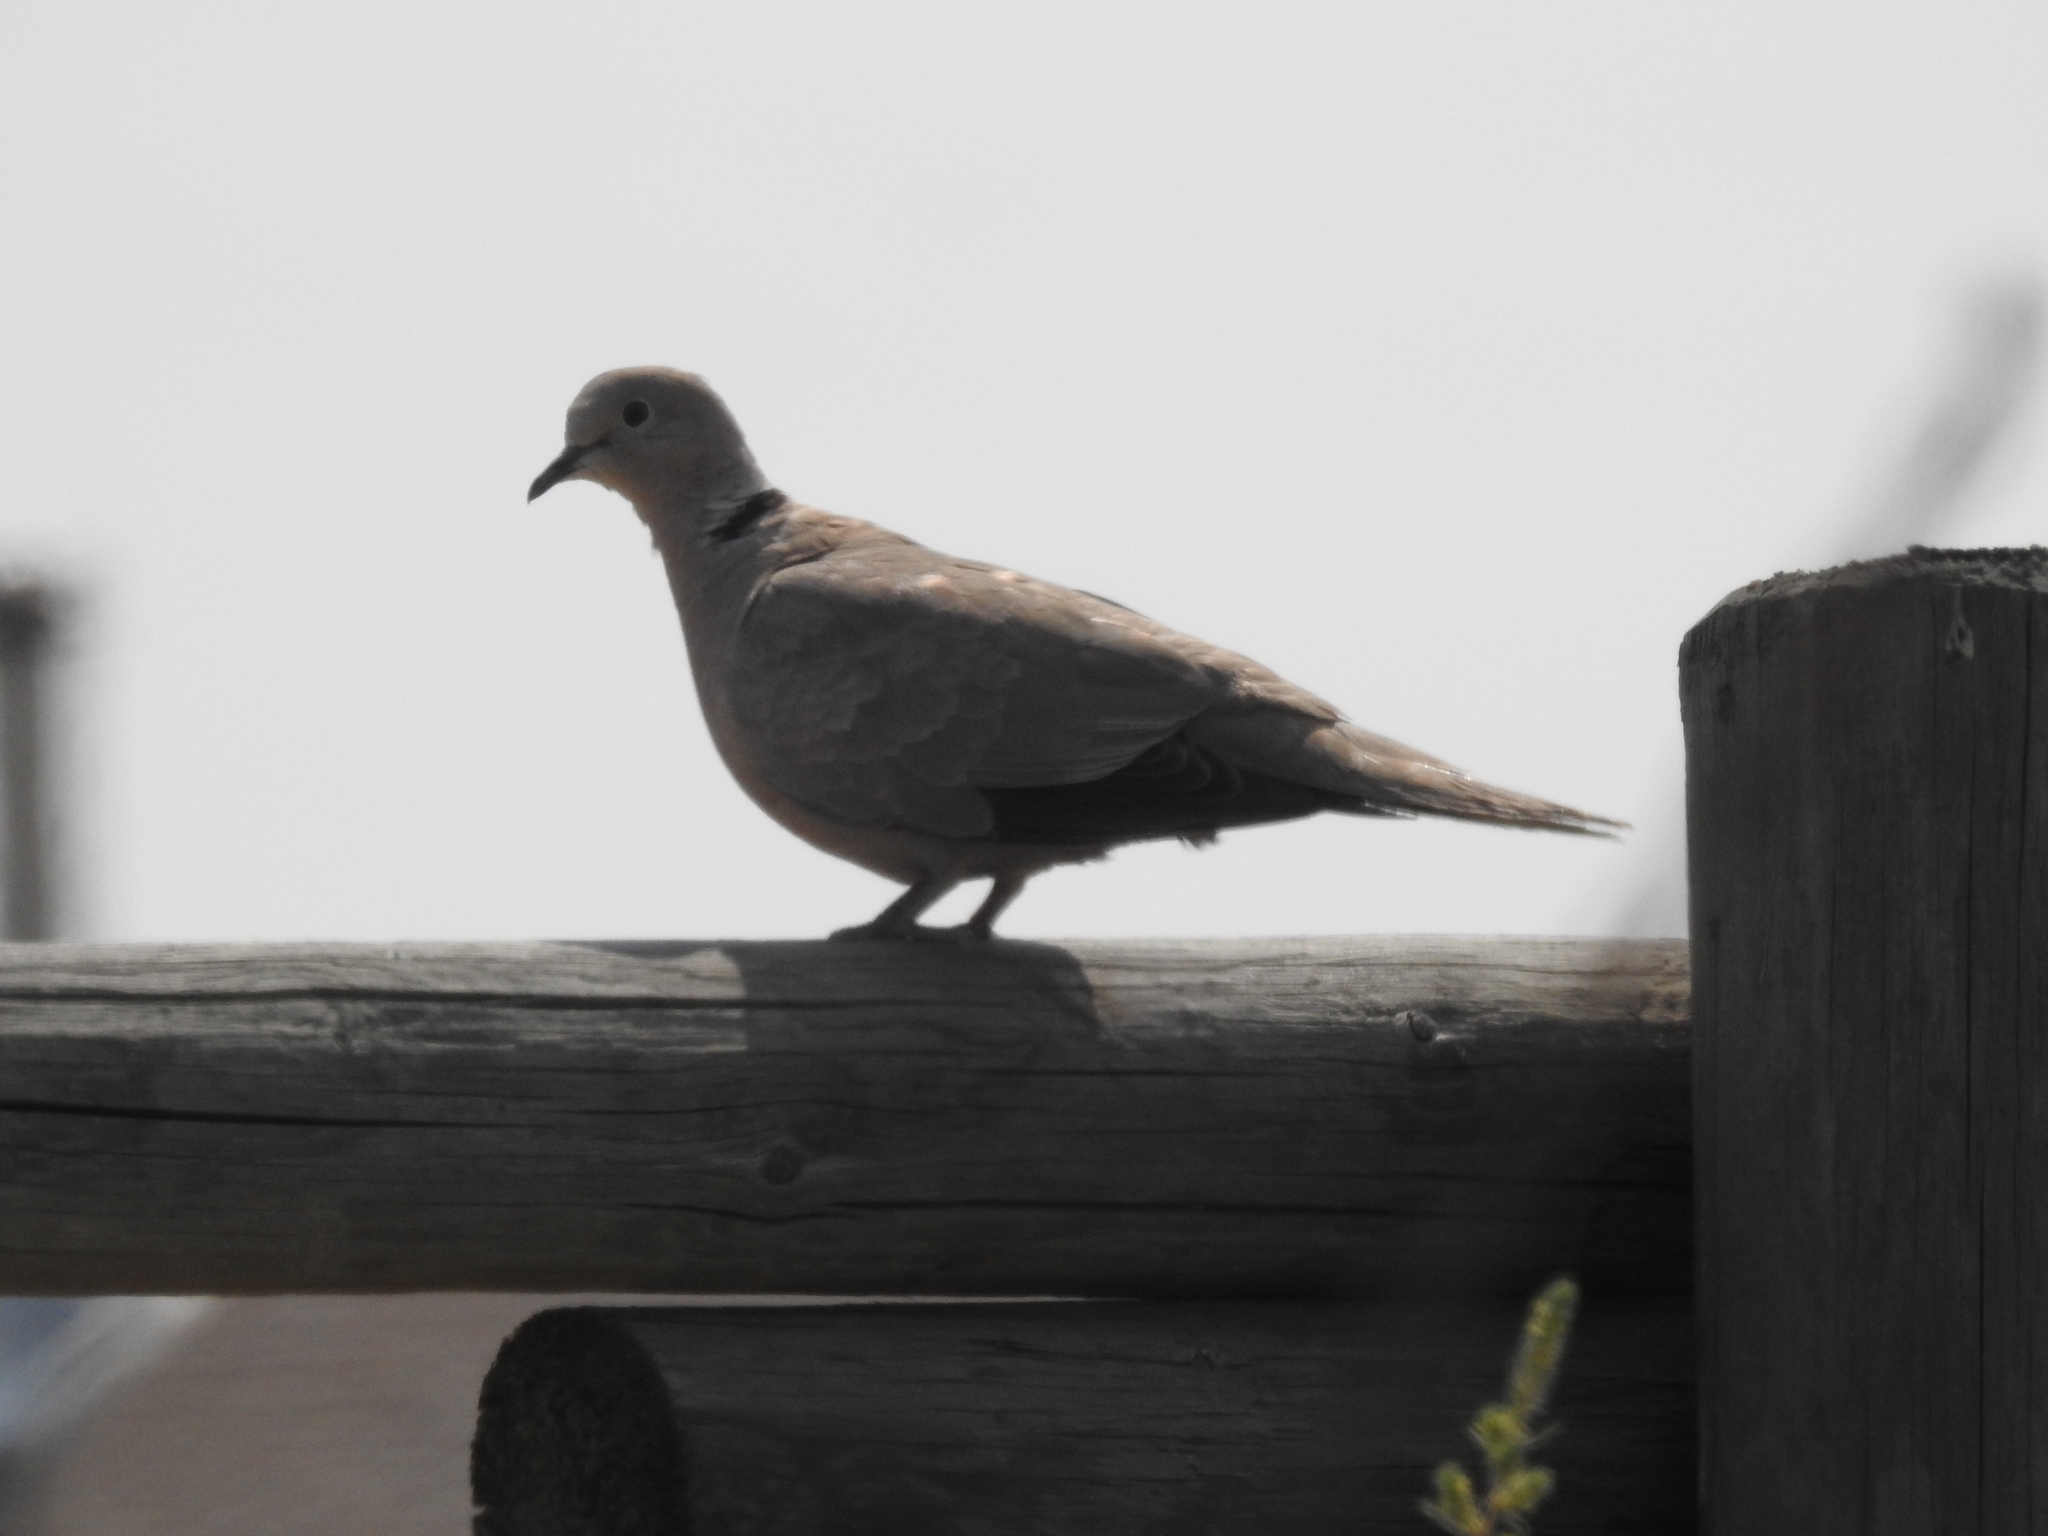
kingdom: Animalia
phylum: Chordata
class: Aves
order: Columbiformes
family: Columbidae
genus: Streptopelia
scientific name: Streptopelia decaocto
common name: Eurasian collared dove
